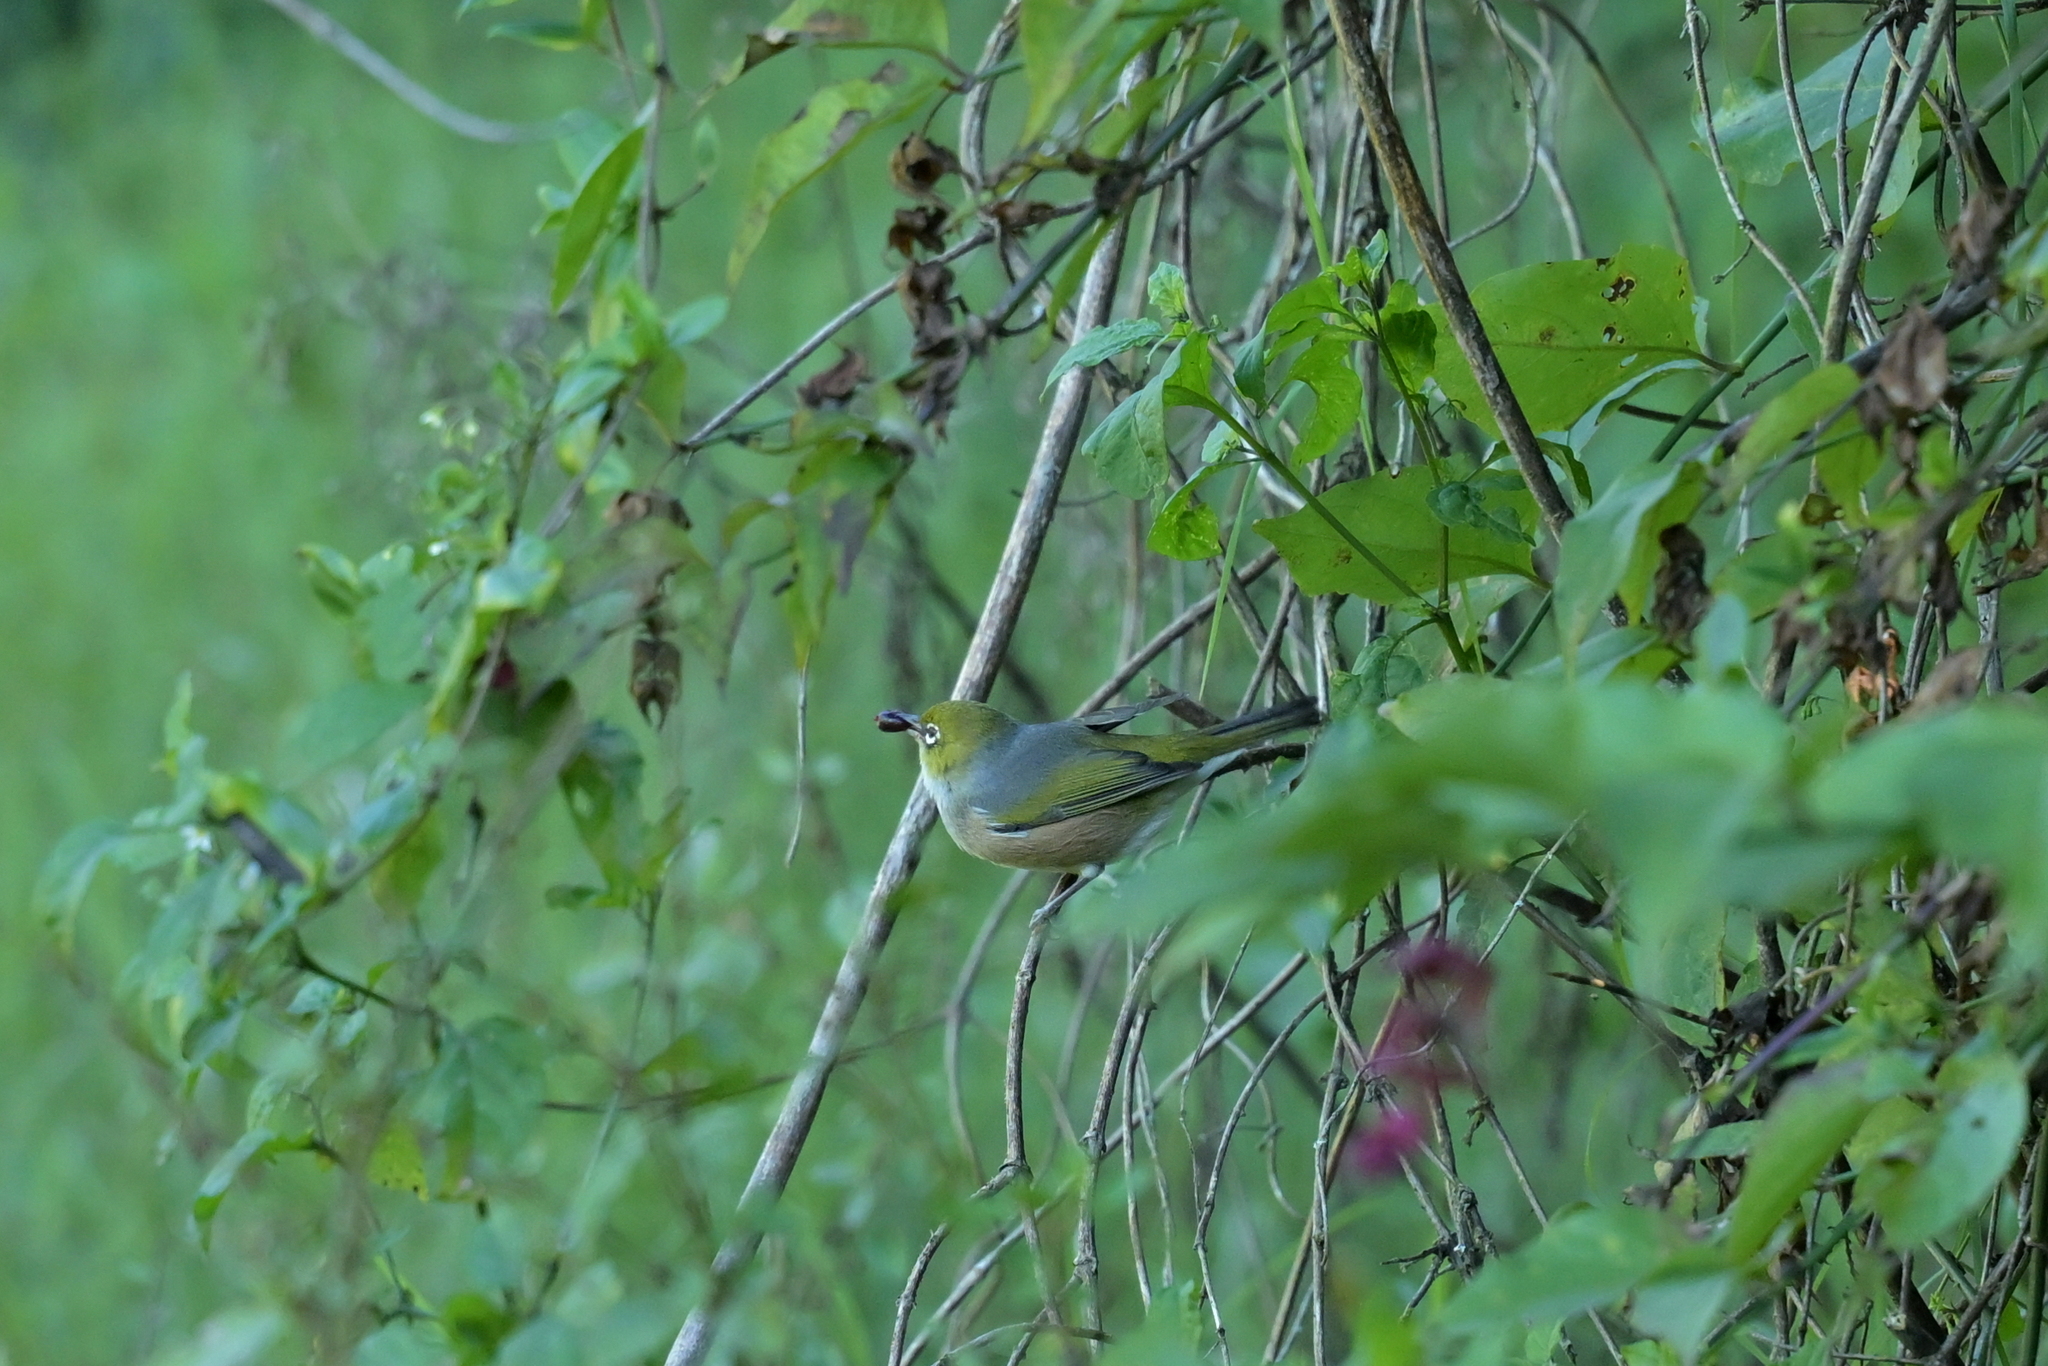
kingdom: Animalia
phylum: Chordata
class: Aves
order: Passeriformes
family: Zosteropidae
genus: Zosterops
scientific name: Zosterops lateralis
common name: Silvereye
